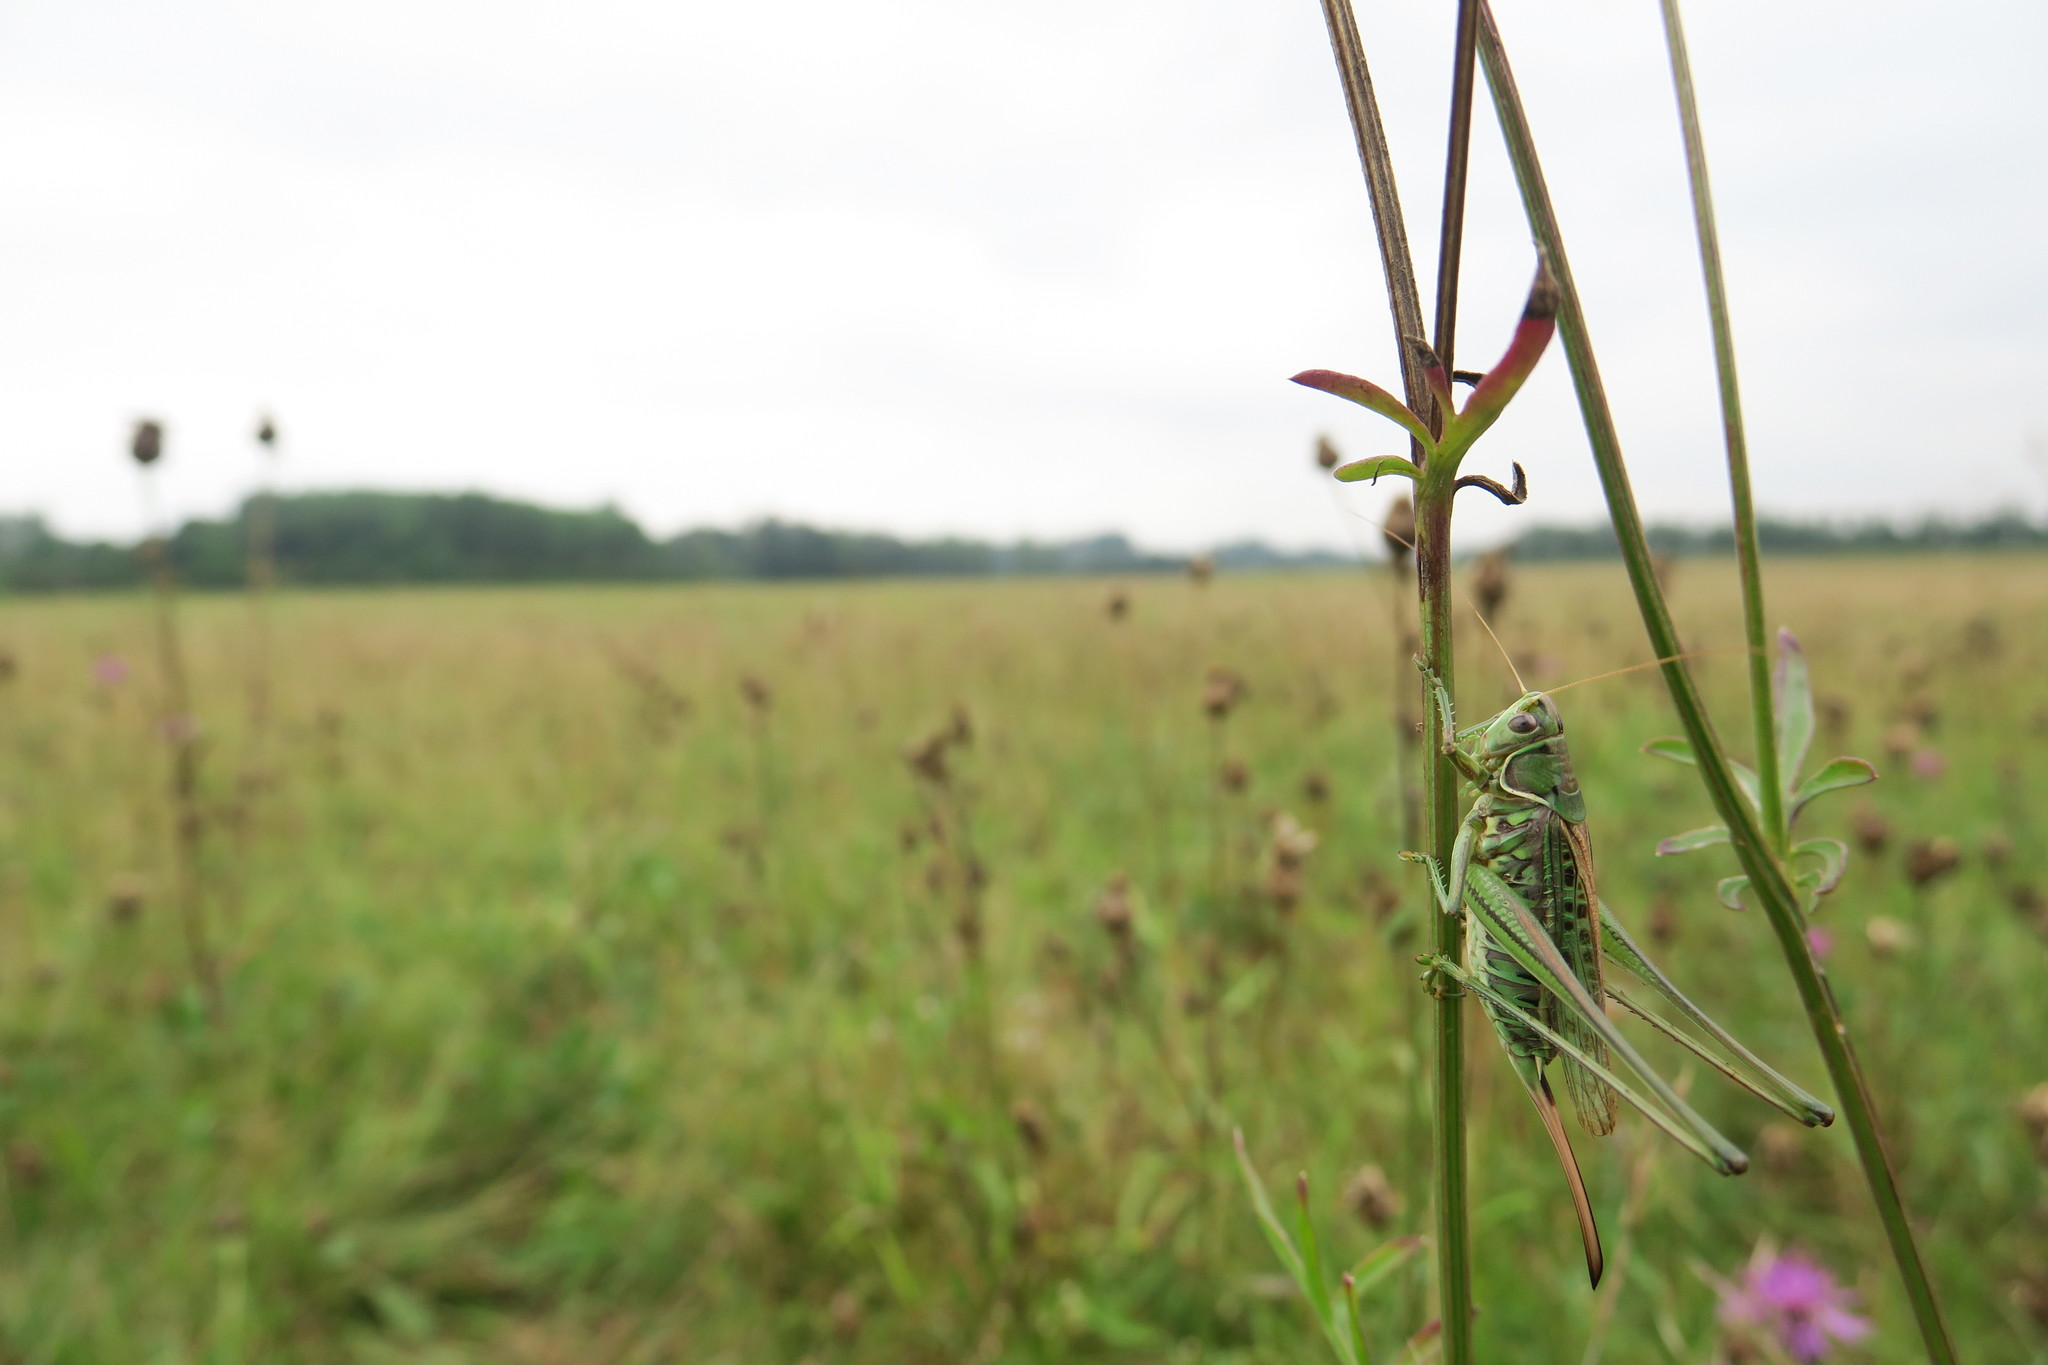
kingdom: Animalia
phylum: Arthropoda
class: Insecta
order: Orthoptera
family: Tettigoniidae
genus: Gampsocleis
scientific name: Gampsocleis glabra
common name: Heath bushcricket
